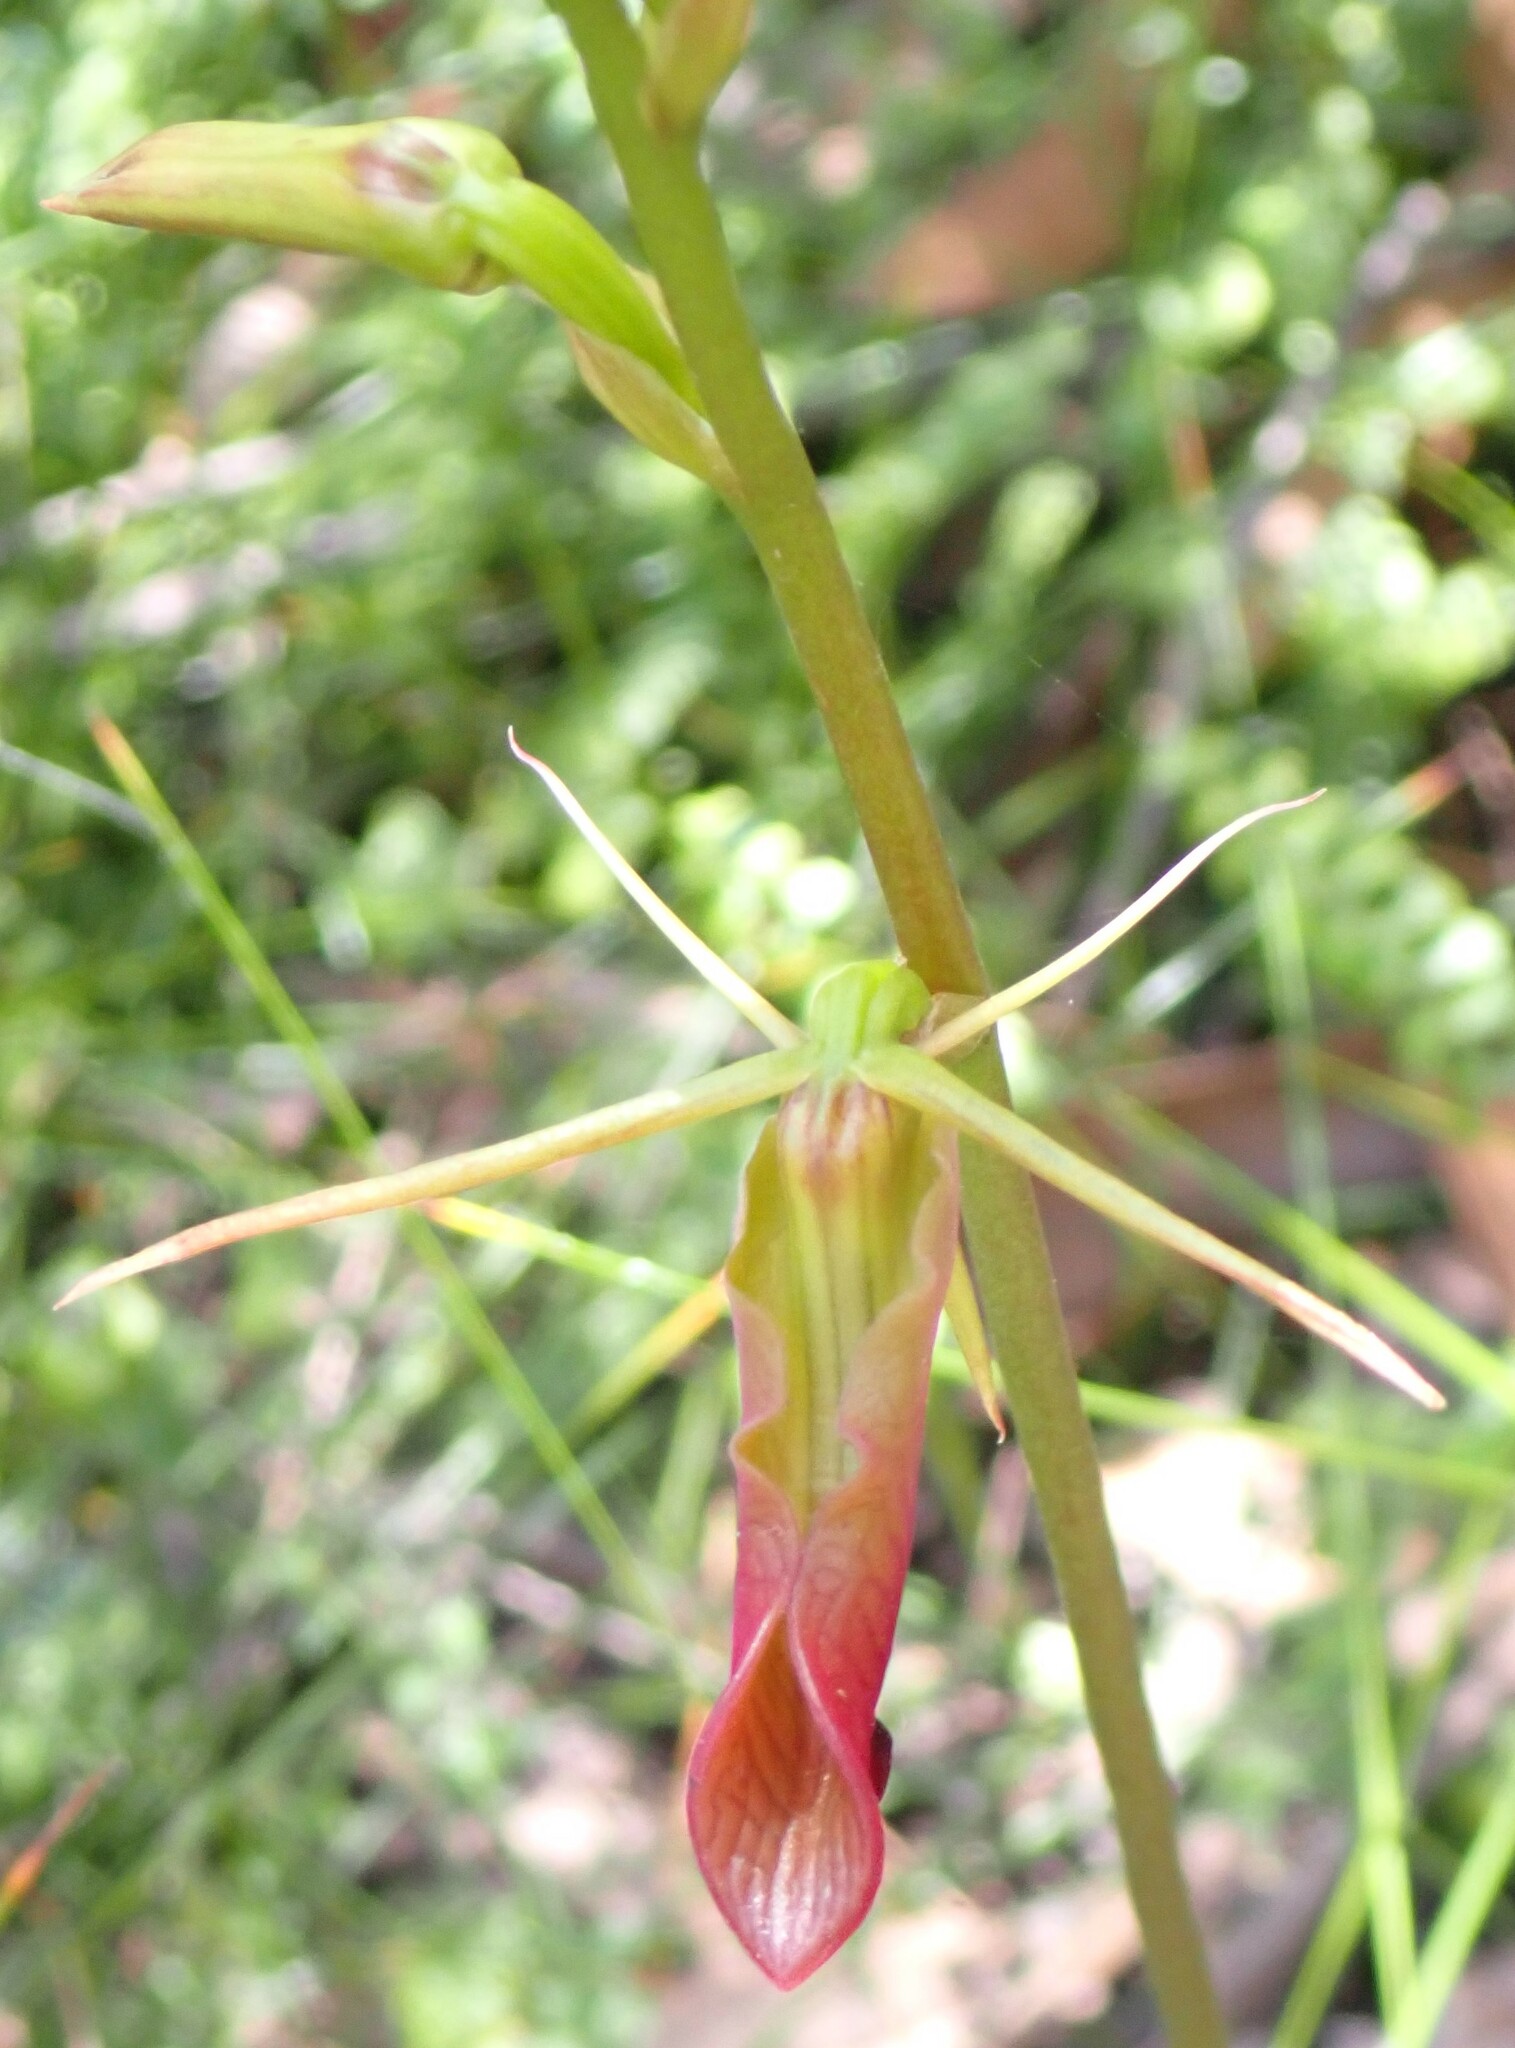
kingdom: Plantae
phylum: Tracheophyta
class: Liliopsida
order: Asparagales
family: Orchidaceae
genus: Cryptostylis
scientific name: Cryptostylis subulata
